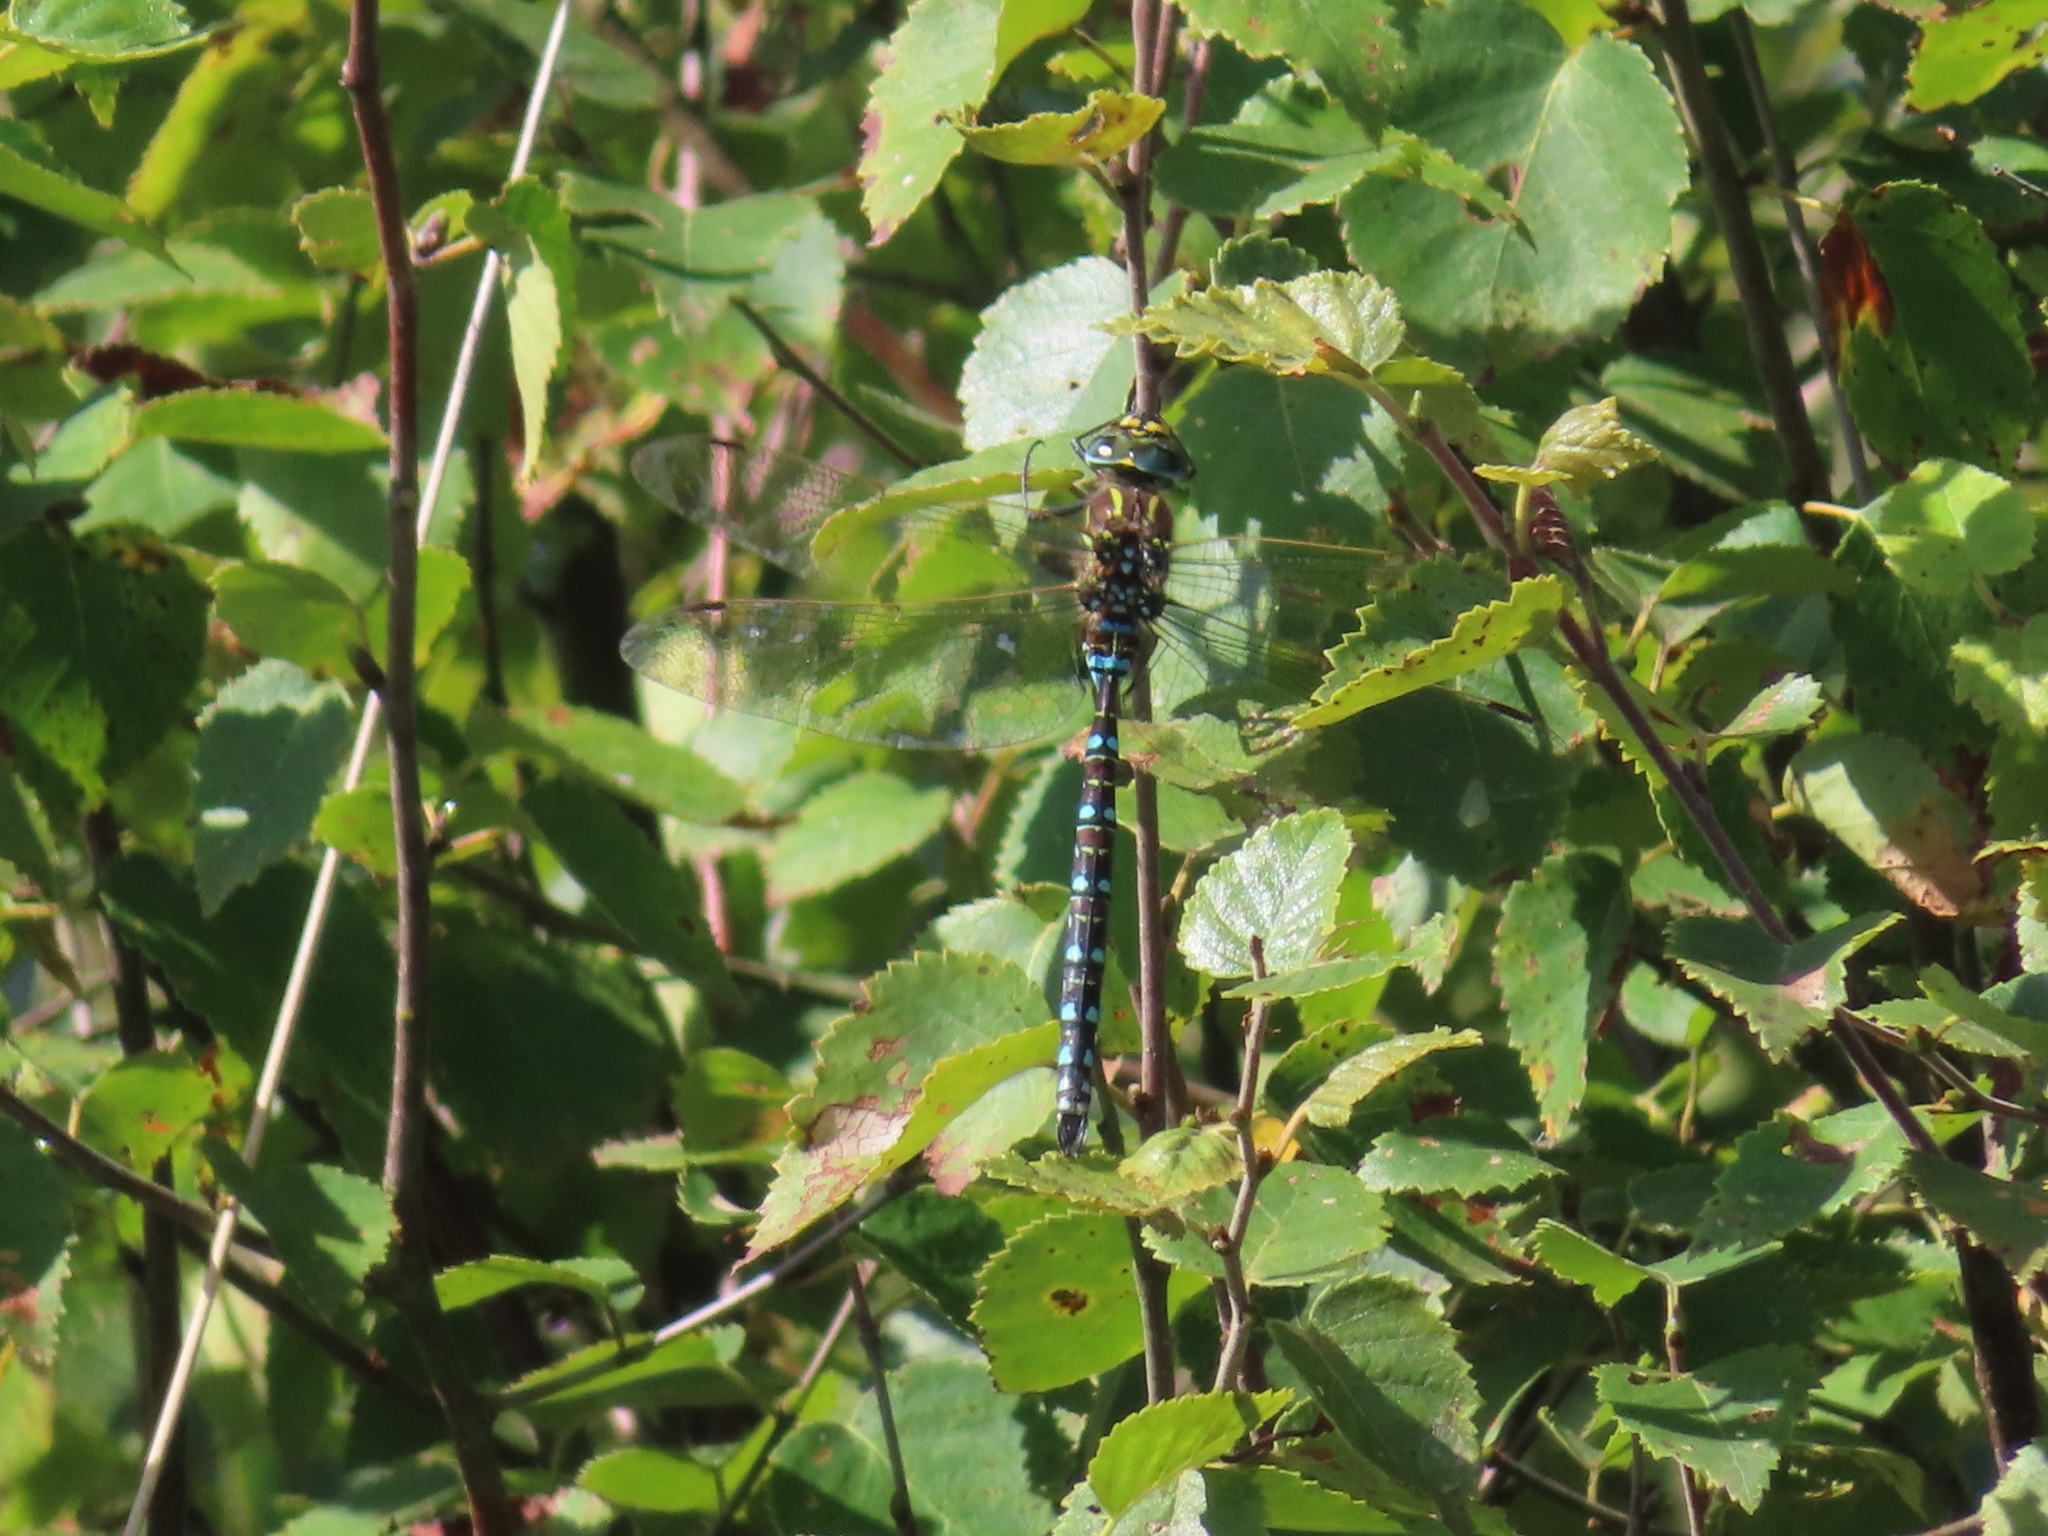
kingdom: Animalia
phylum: Arthropoda
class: Insecta
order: Odonata
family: Aeshnidae
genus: Aeshna
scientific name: Aeshna juncea
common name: Moorland hawker
